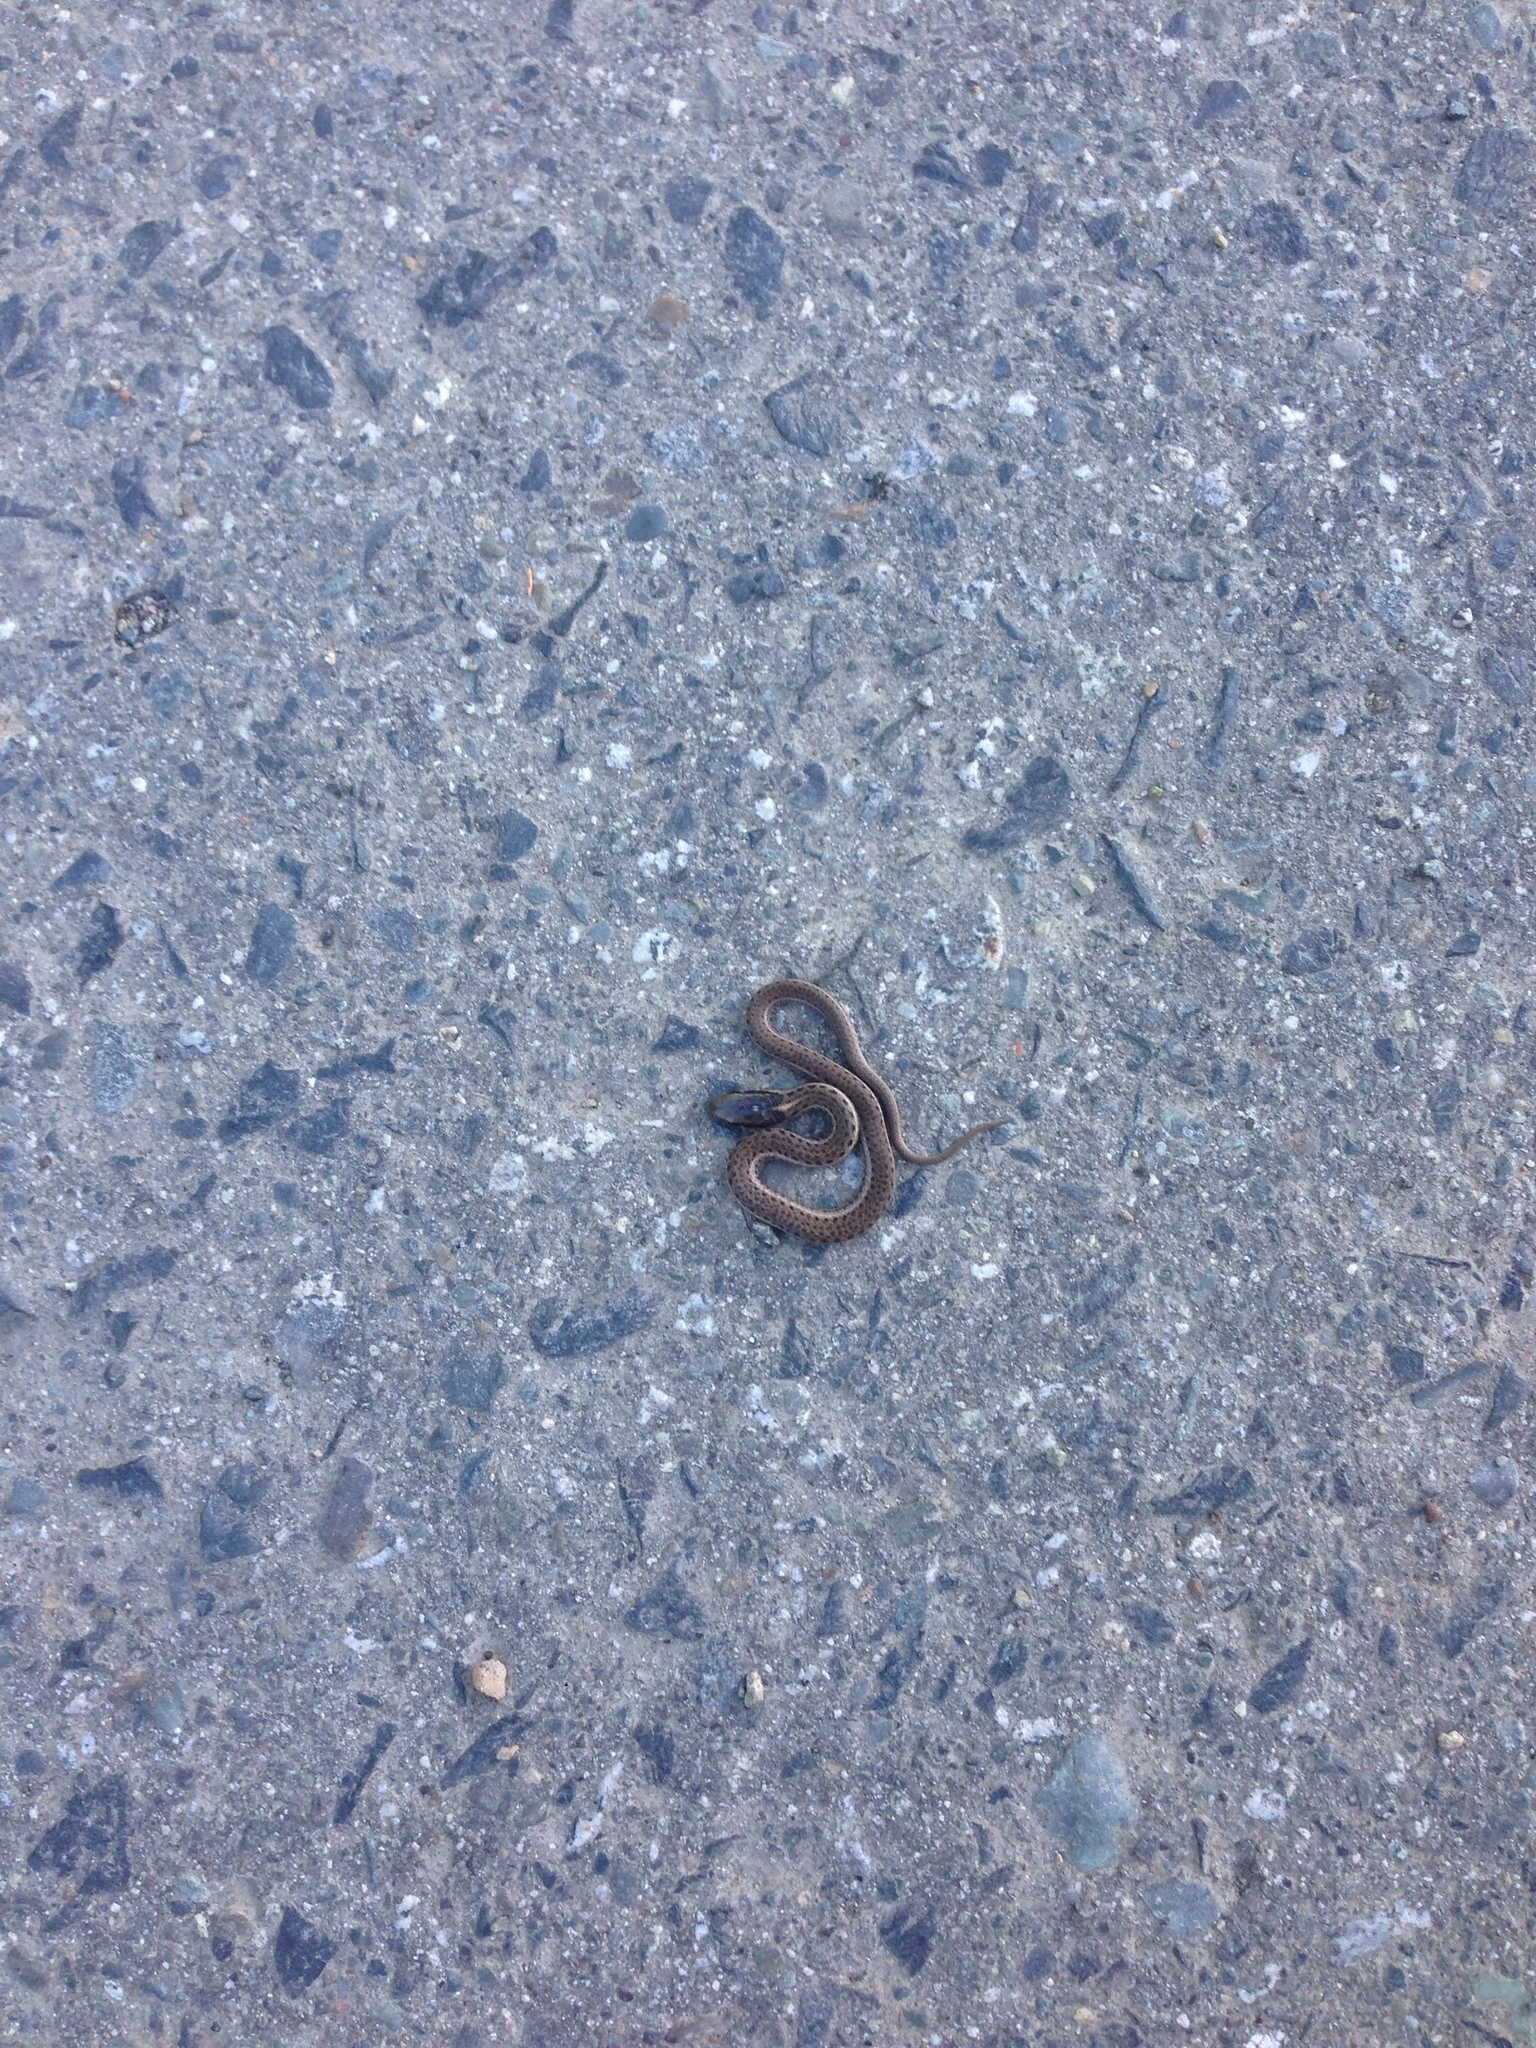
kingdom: Animalia
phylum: Chordata
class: Squamata
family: Colubridae
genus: Thamnophis
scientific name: Thamnophis ordinoides
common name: Northwestern garter snake
